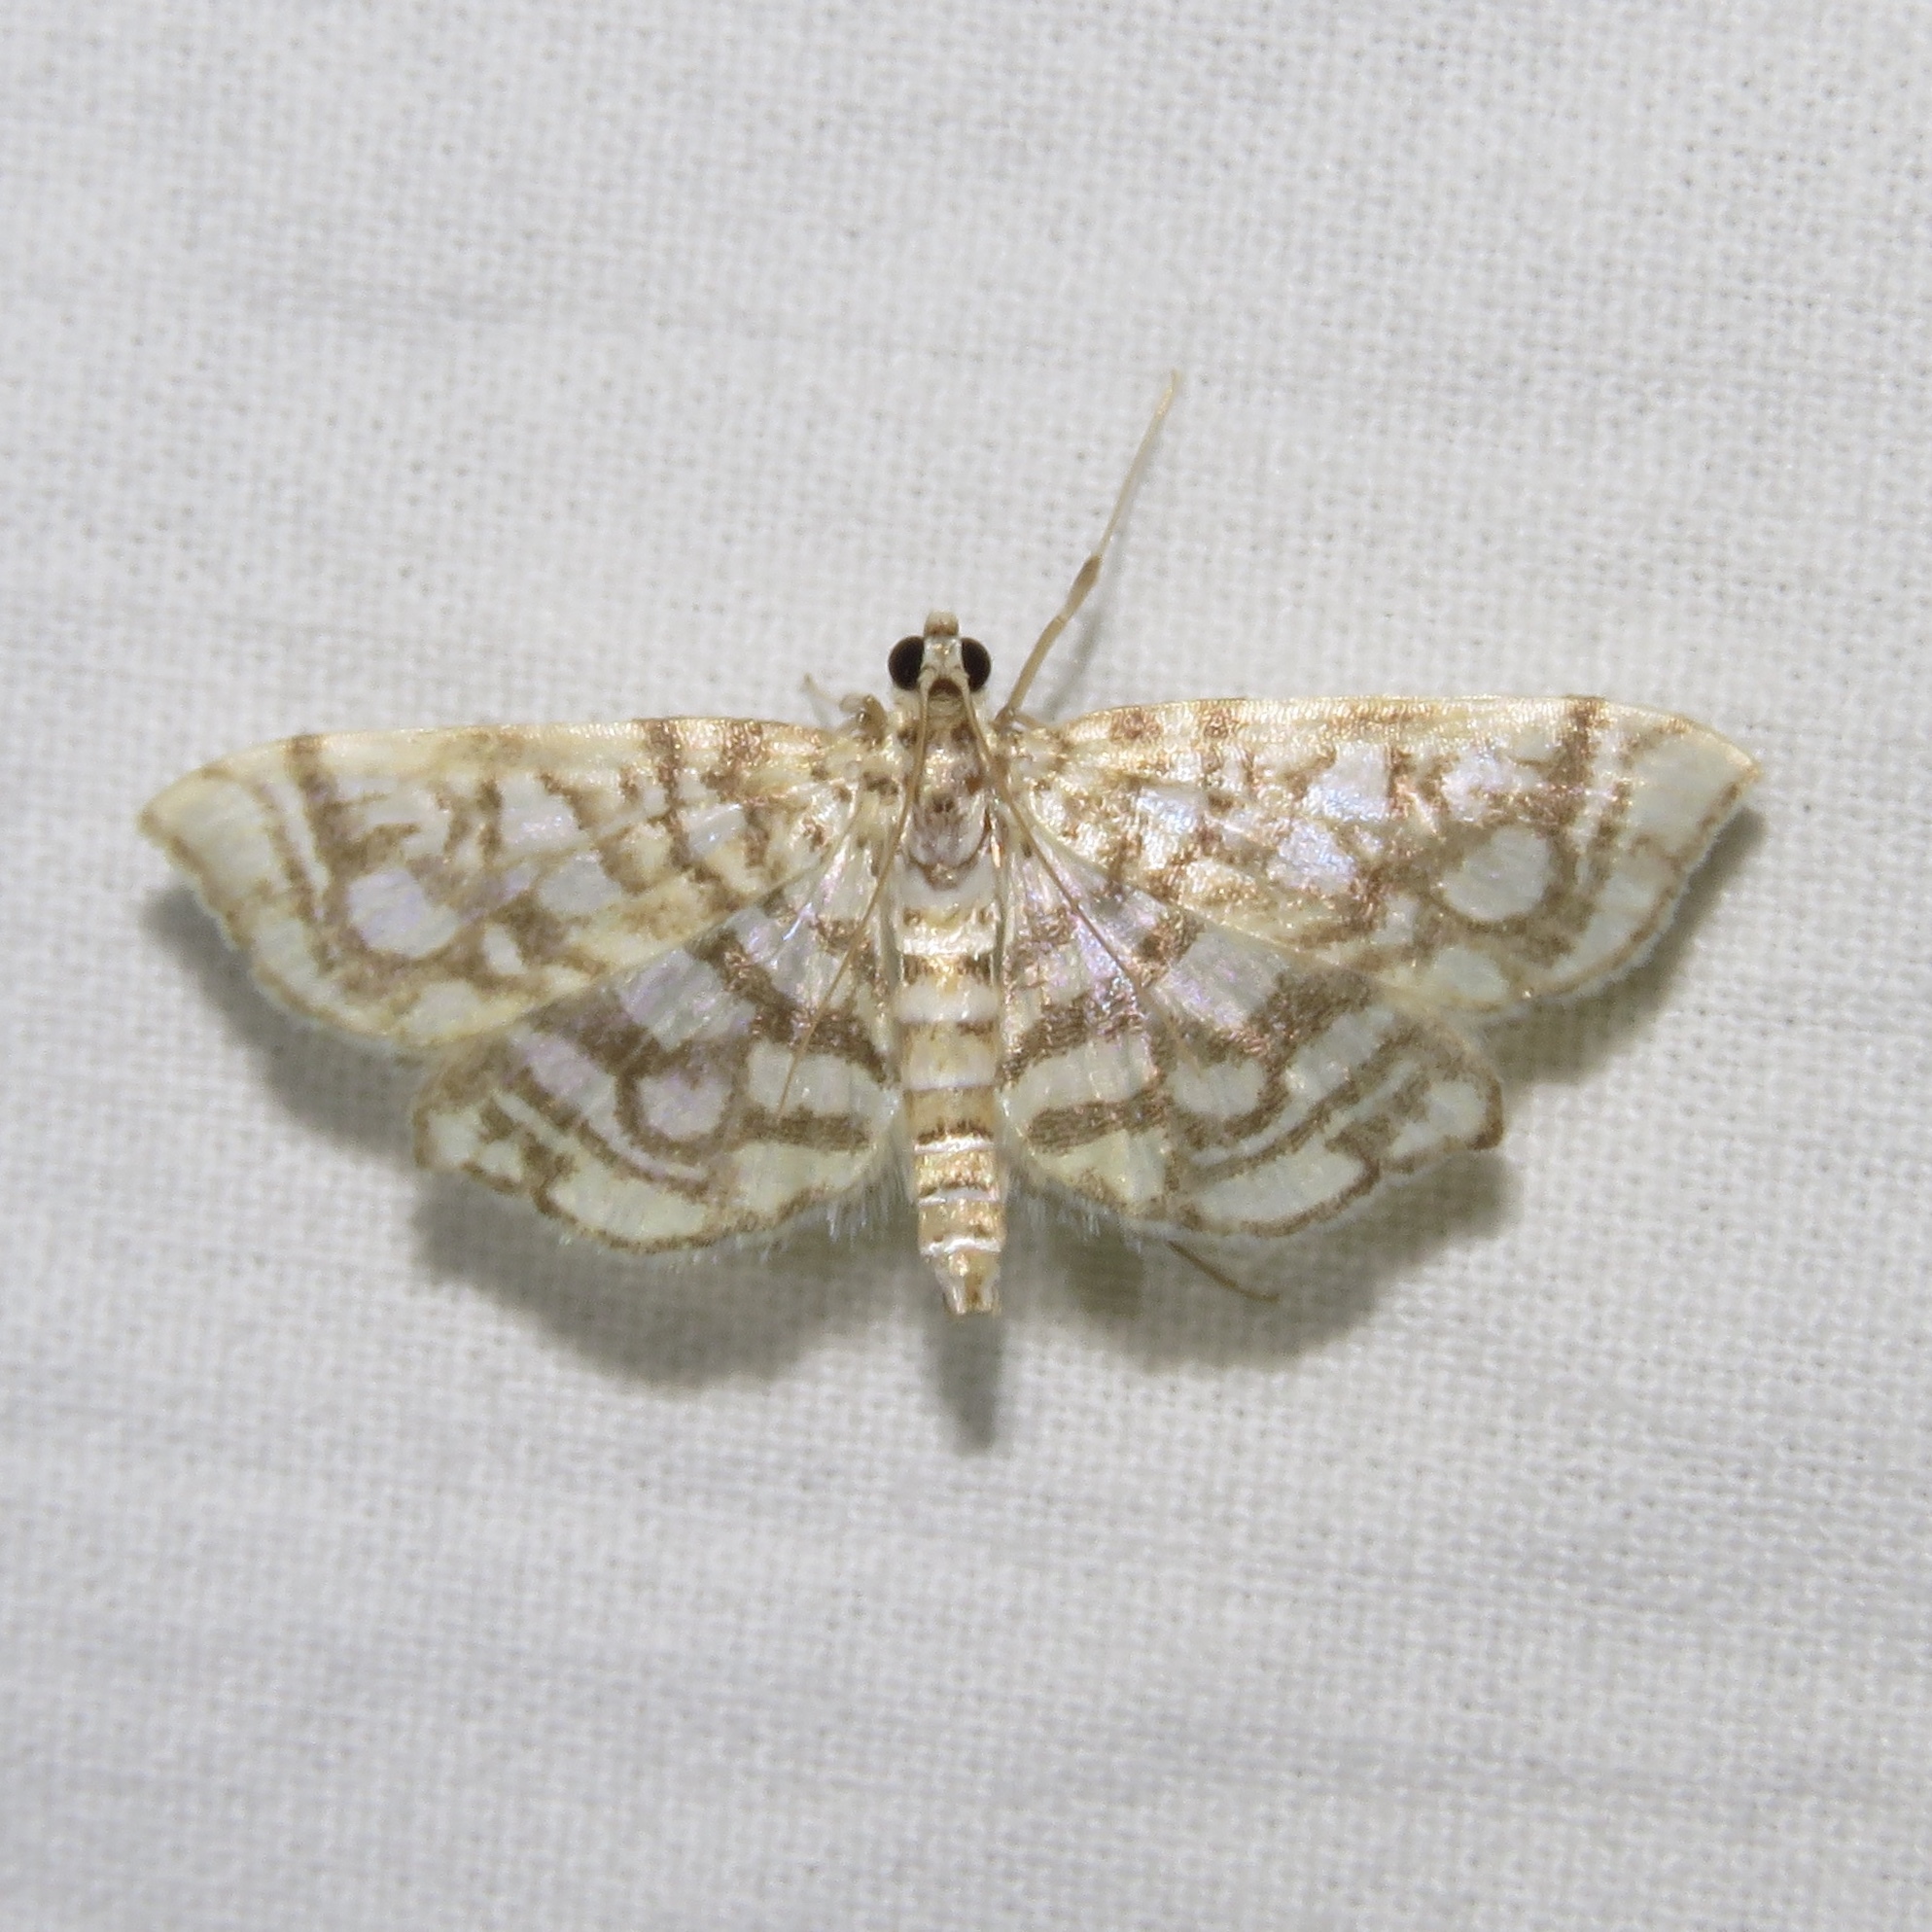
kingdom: Animalia
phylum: Arthropoda
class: Insecta
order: Lepidoptera
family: Crambidae
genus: Lygropia
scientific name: Lygropia rivulalis
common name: Bog lygropia moth
